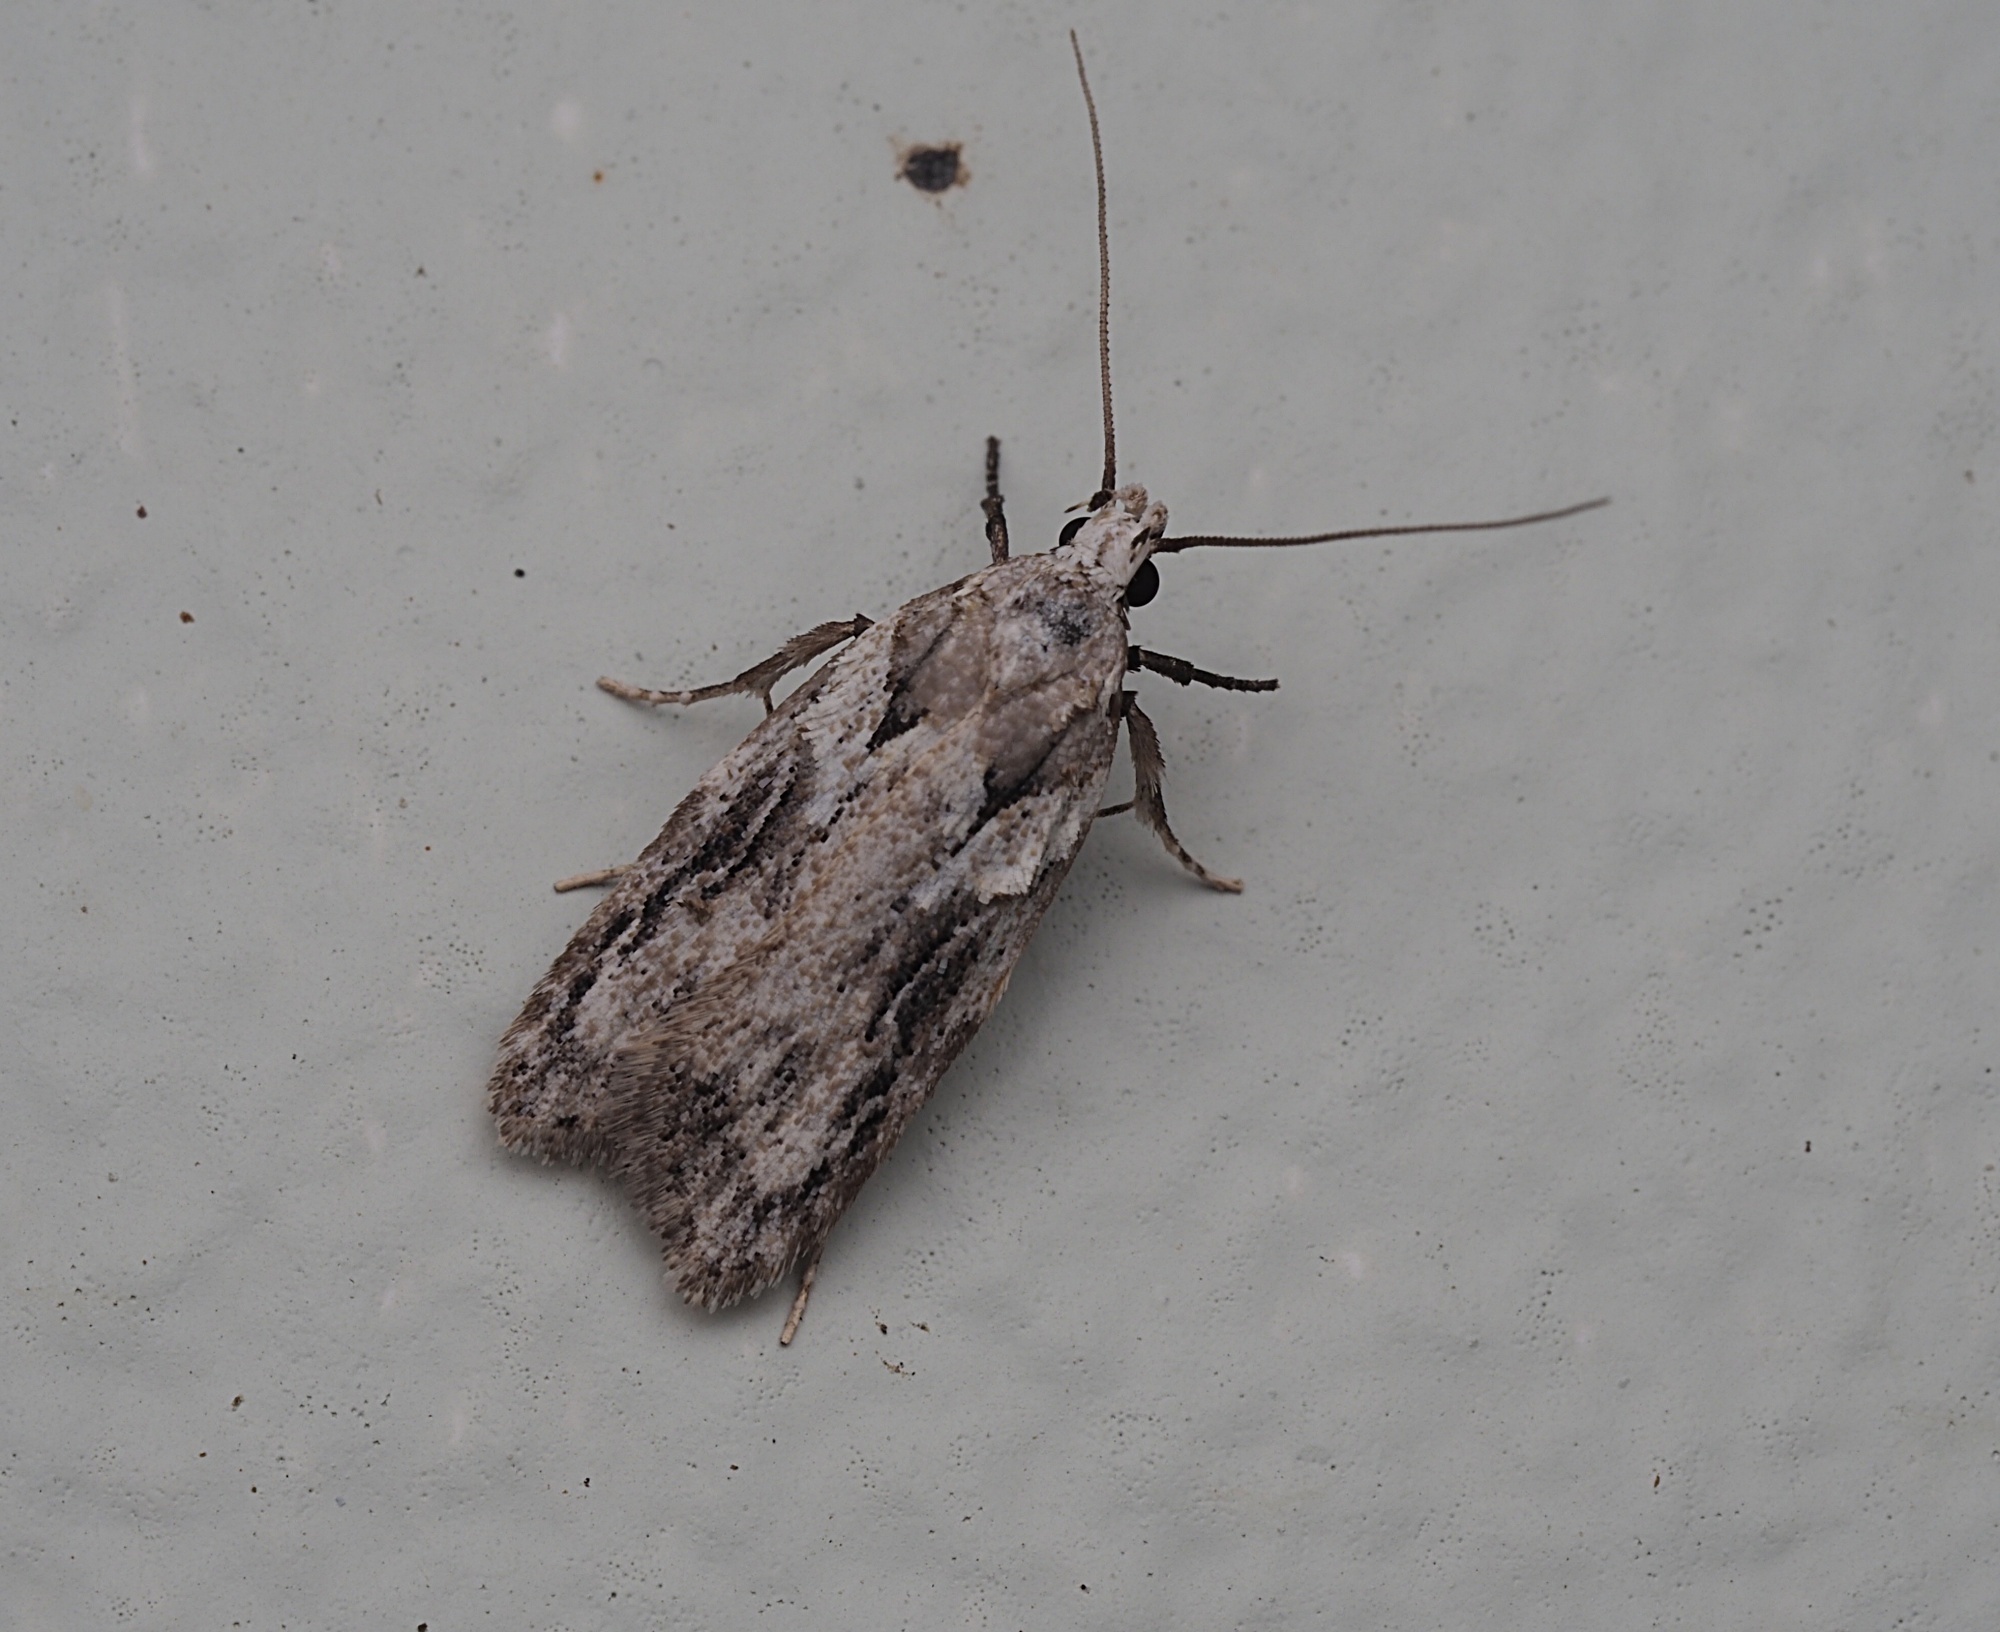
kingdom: Animalia
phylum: Arthropoda
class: Insecta
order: Lepidoptera
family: Oecophoridae
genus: Izatha
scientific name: Izatha mesoschista
